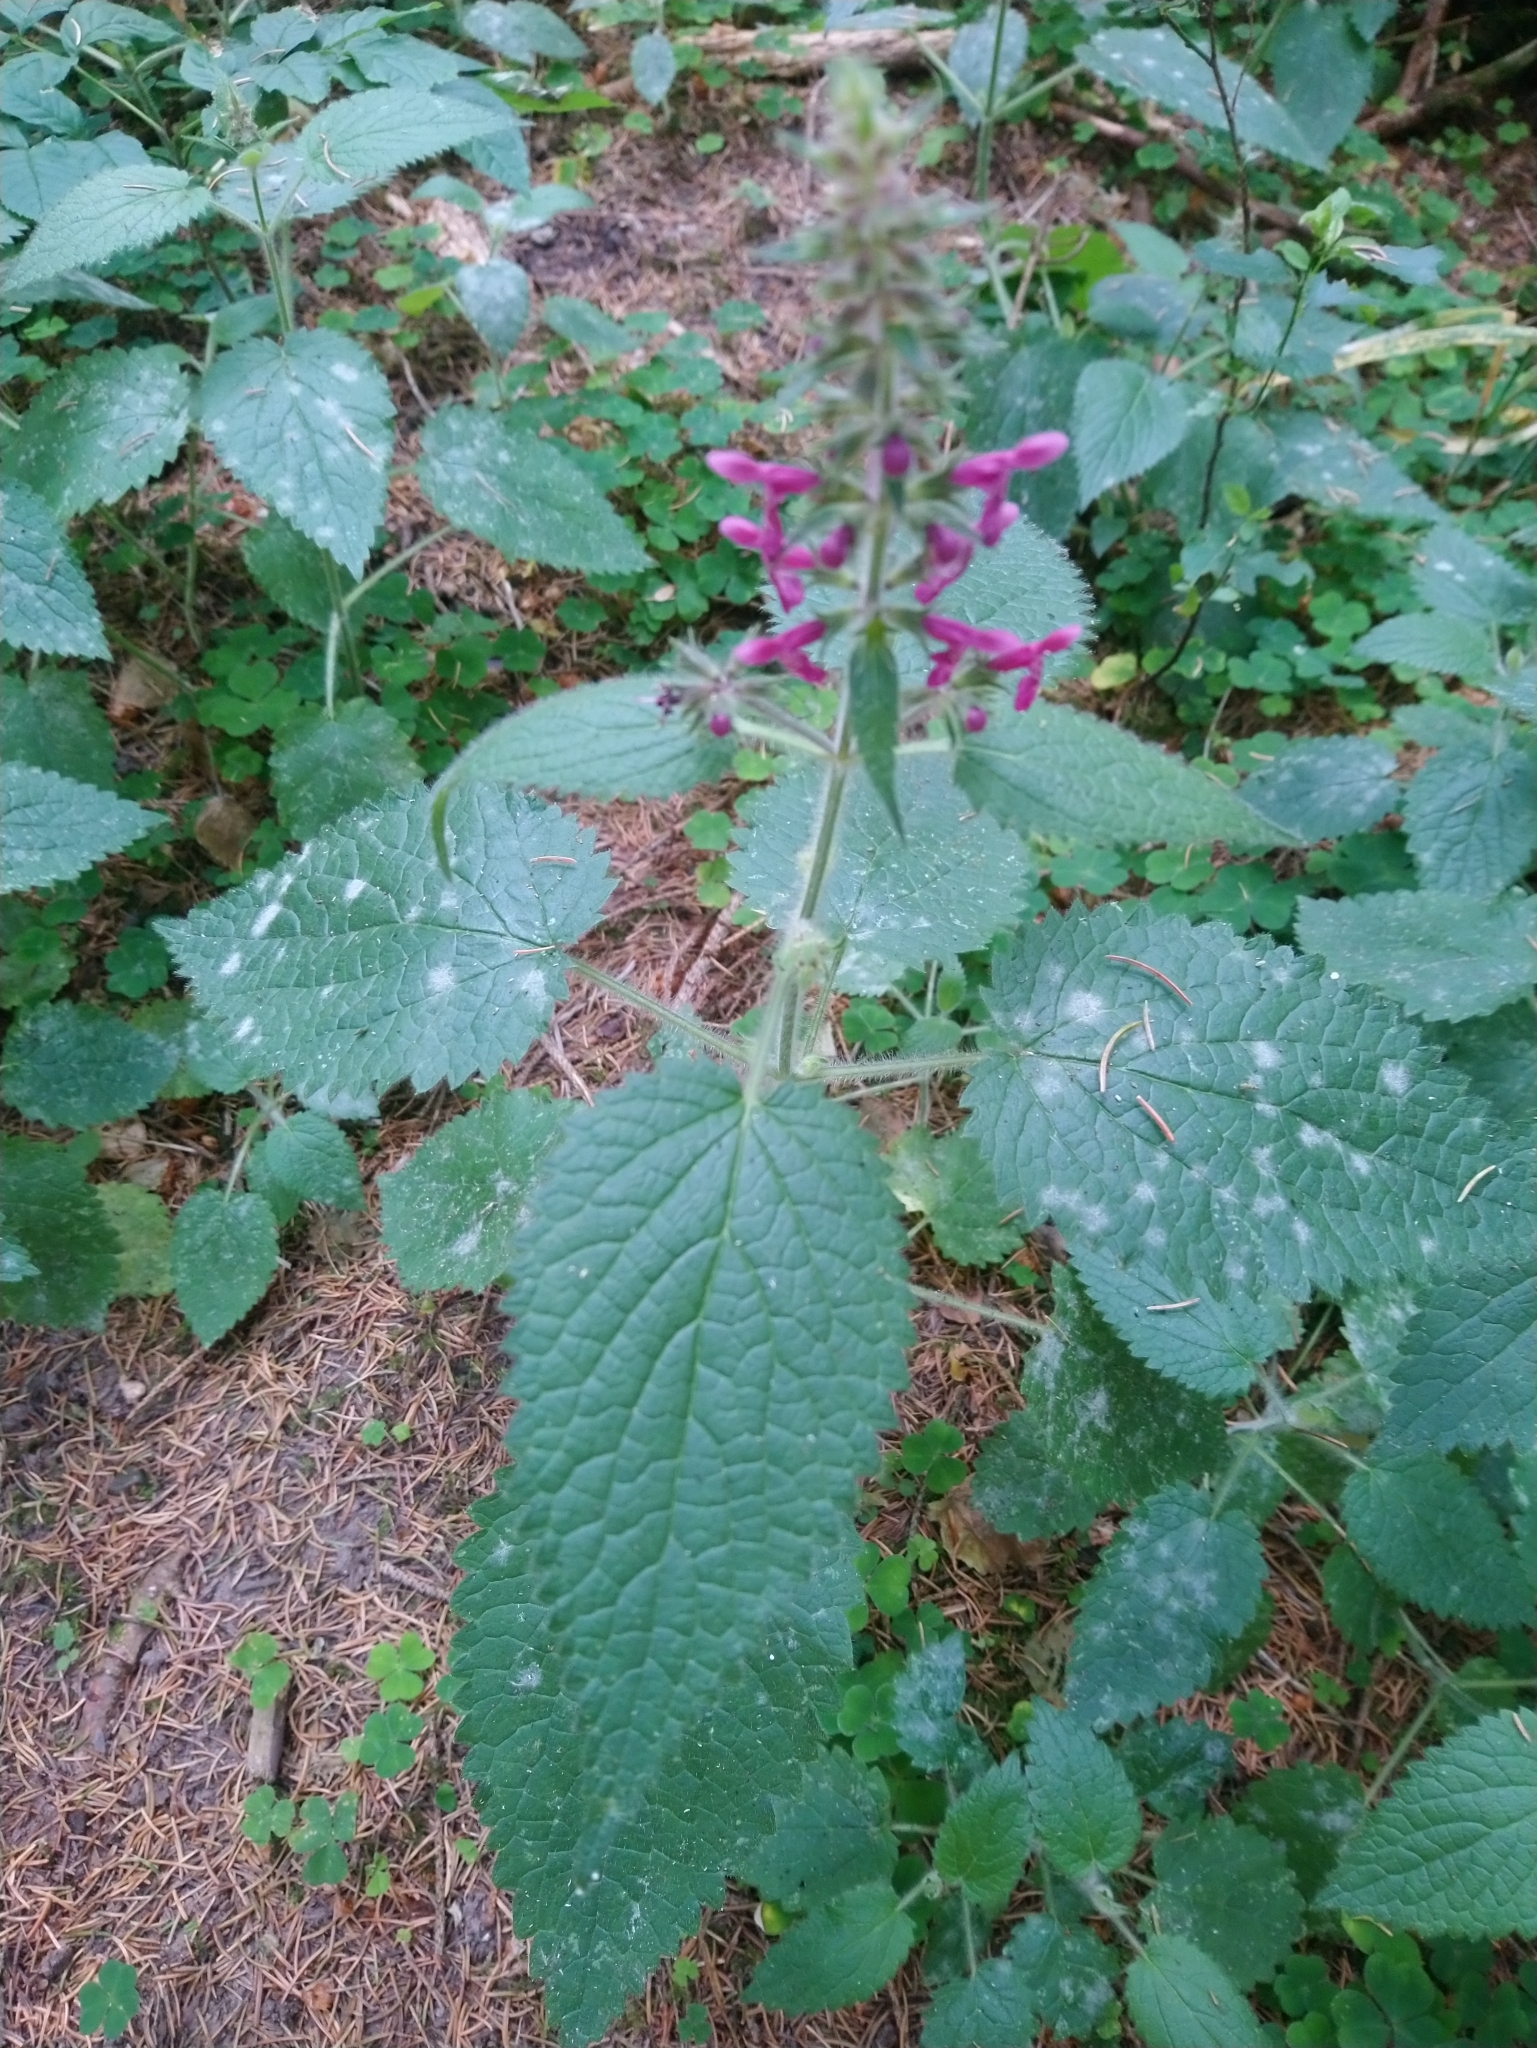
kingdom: Plantae
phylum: Tracheophyta
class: Magnoliopsida
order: Lamiales
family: Lamiaceae
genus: Stachys
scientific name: Stachys sylvatica
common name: Hedge woundwort
